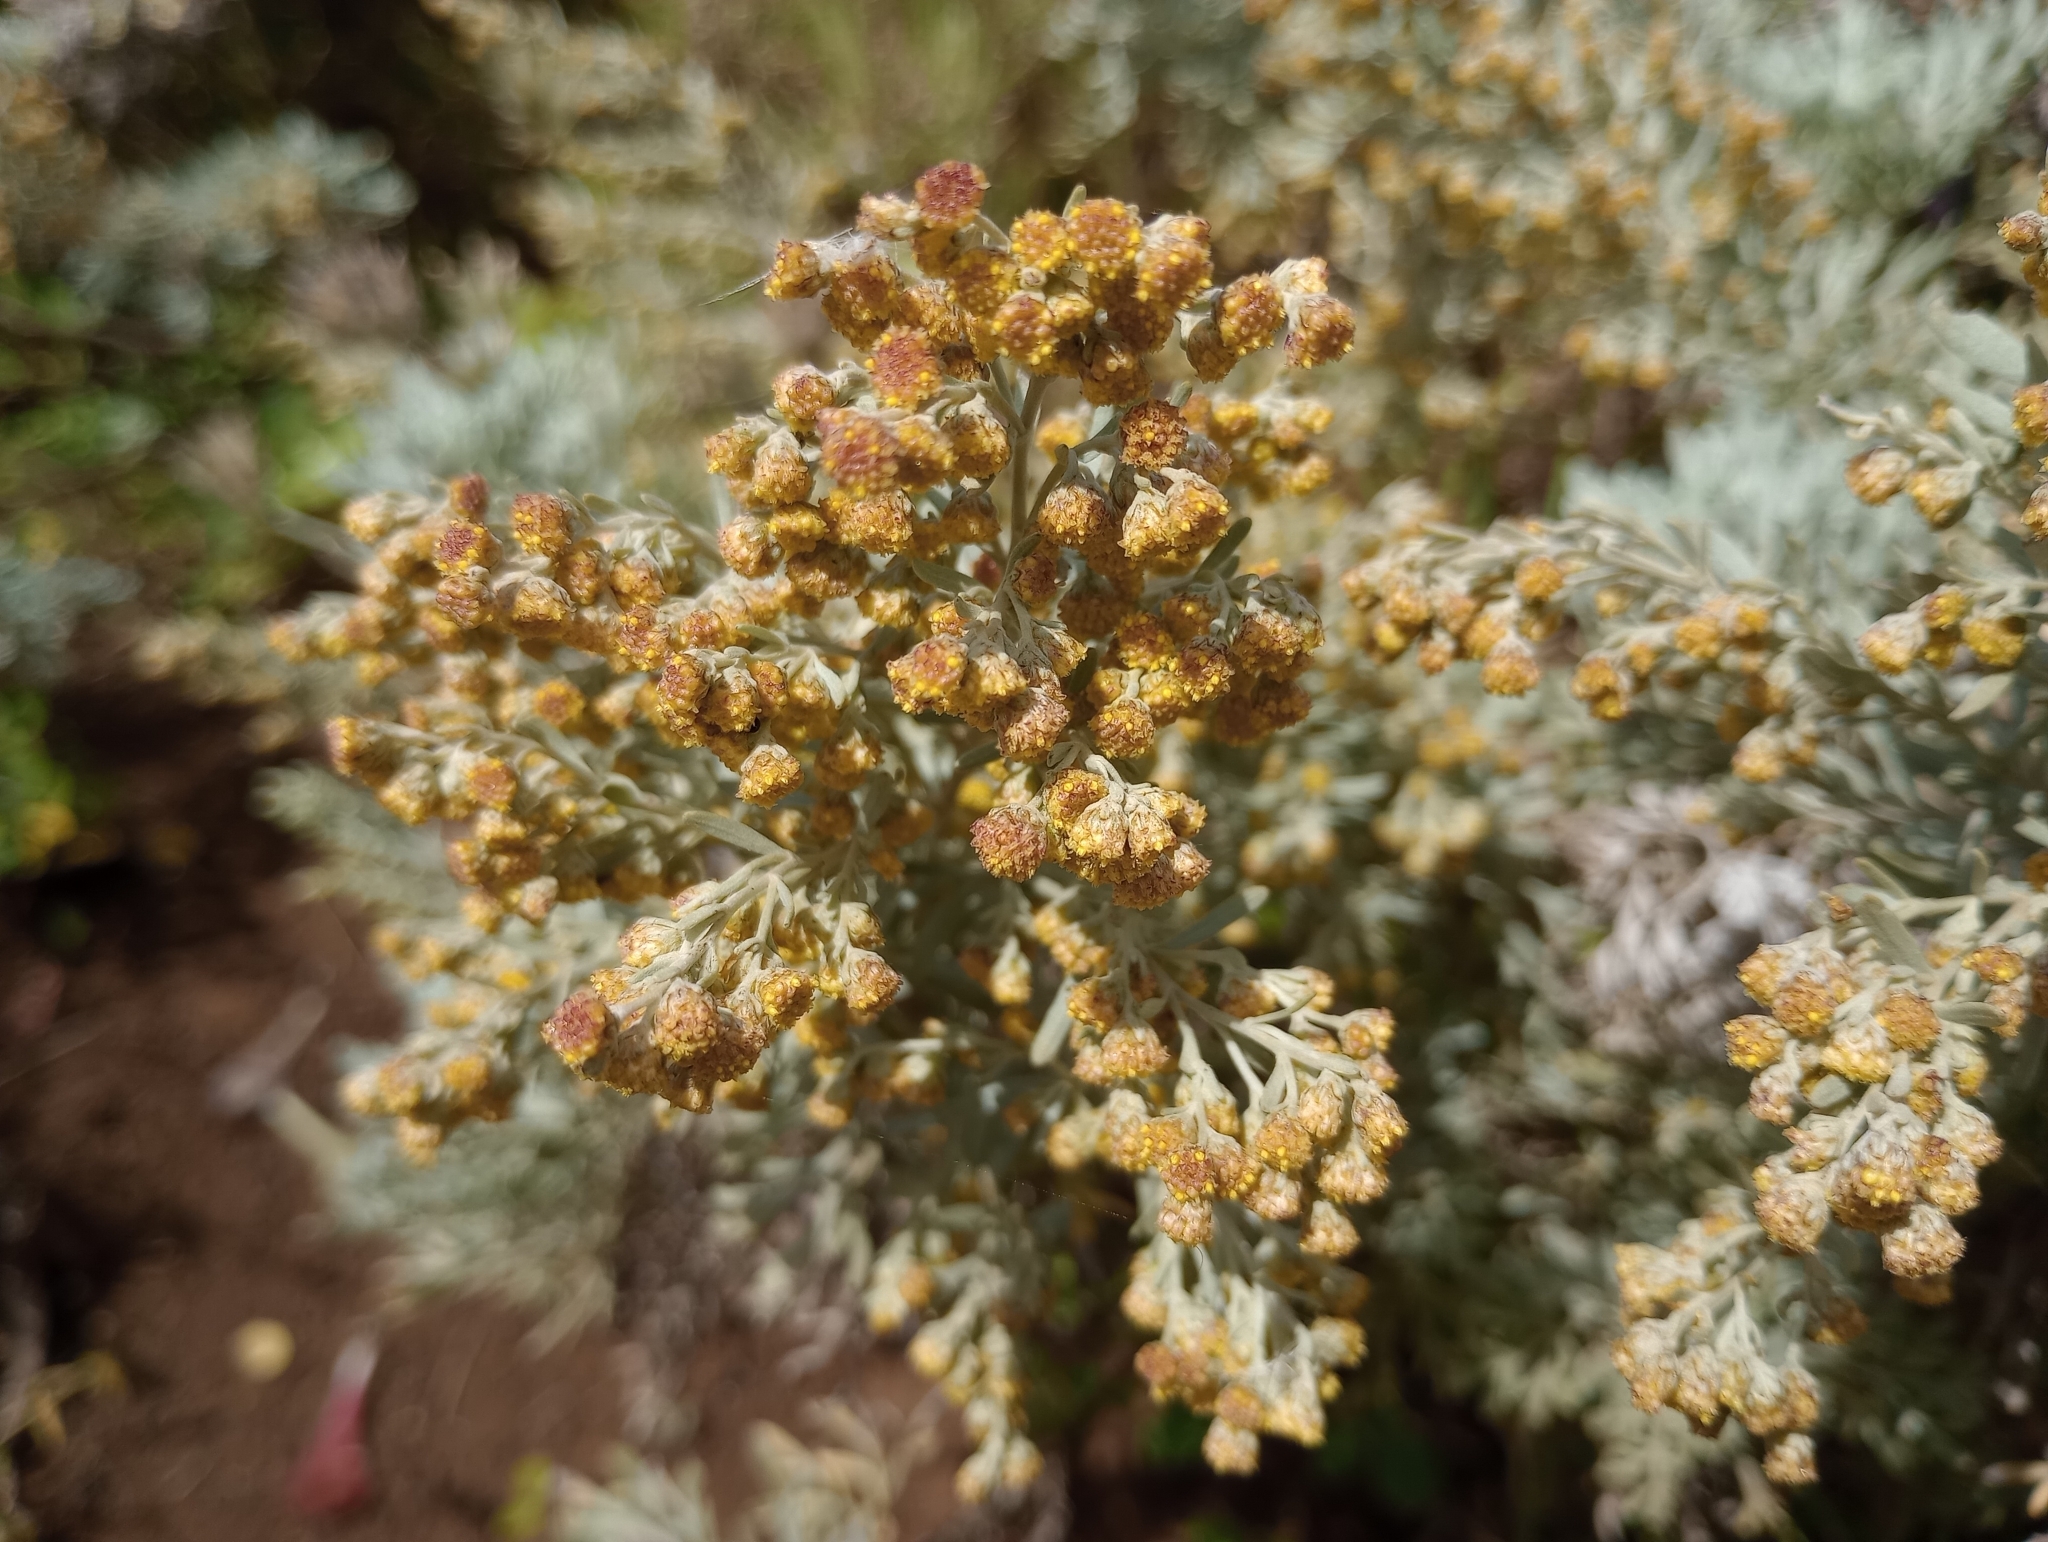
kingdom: Plantae
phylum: Tracheophyta
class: Magnoliopsida
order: Asterales
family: Asteraceae
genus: Artemisia
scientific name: Artemisia thuscula
